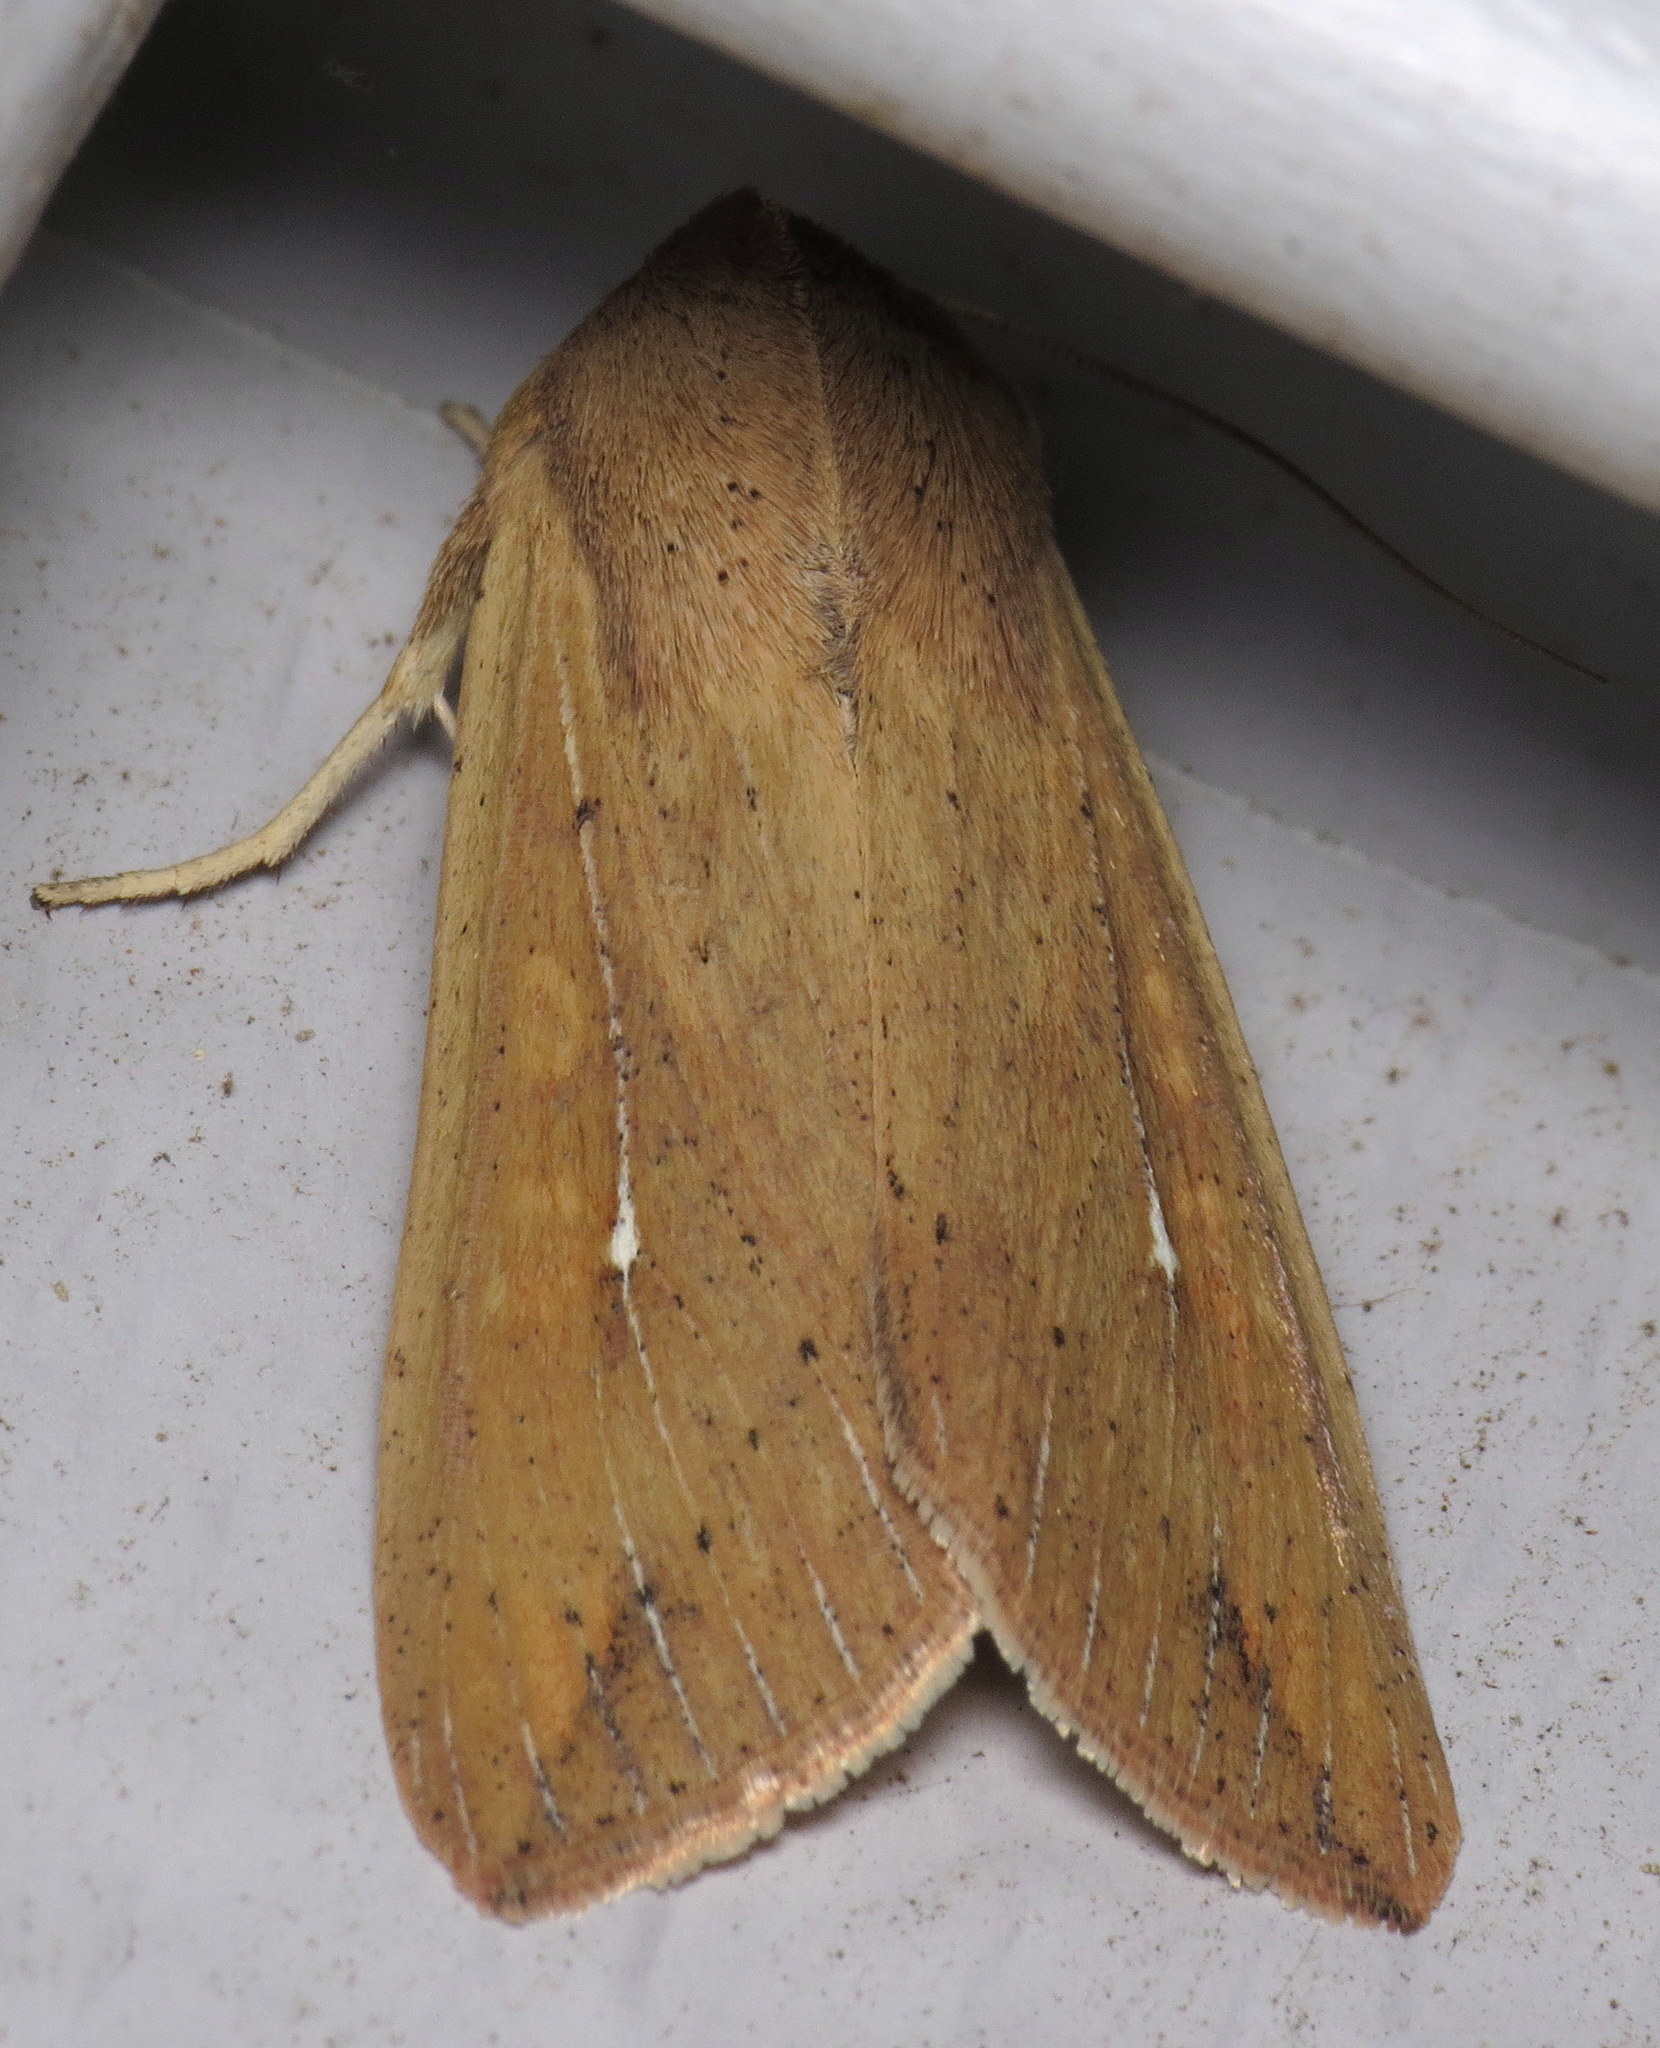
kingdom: Animalia
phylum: Arthropoda
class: Insecta
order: Lepidoptera
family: Noctuidae
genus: Mythimna
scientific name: Mythimna unipuncta
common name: White-speck
